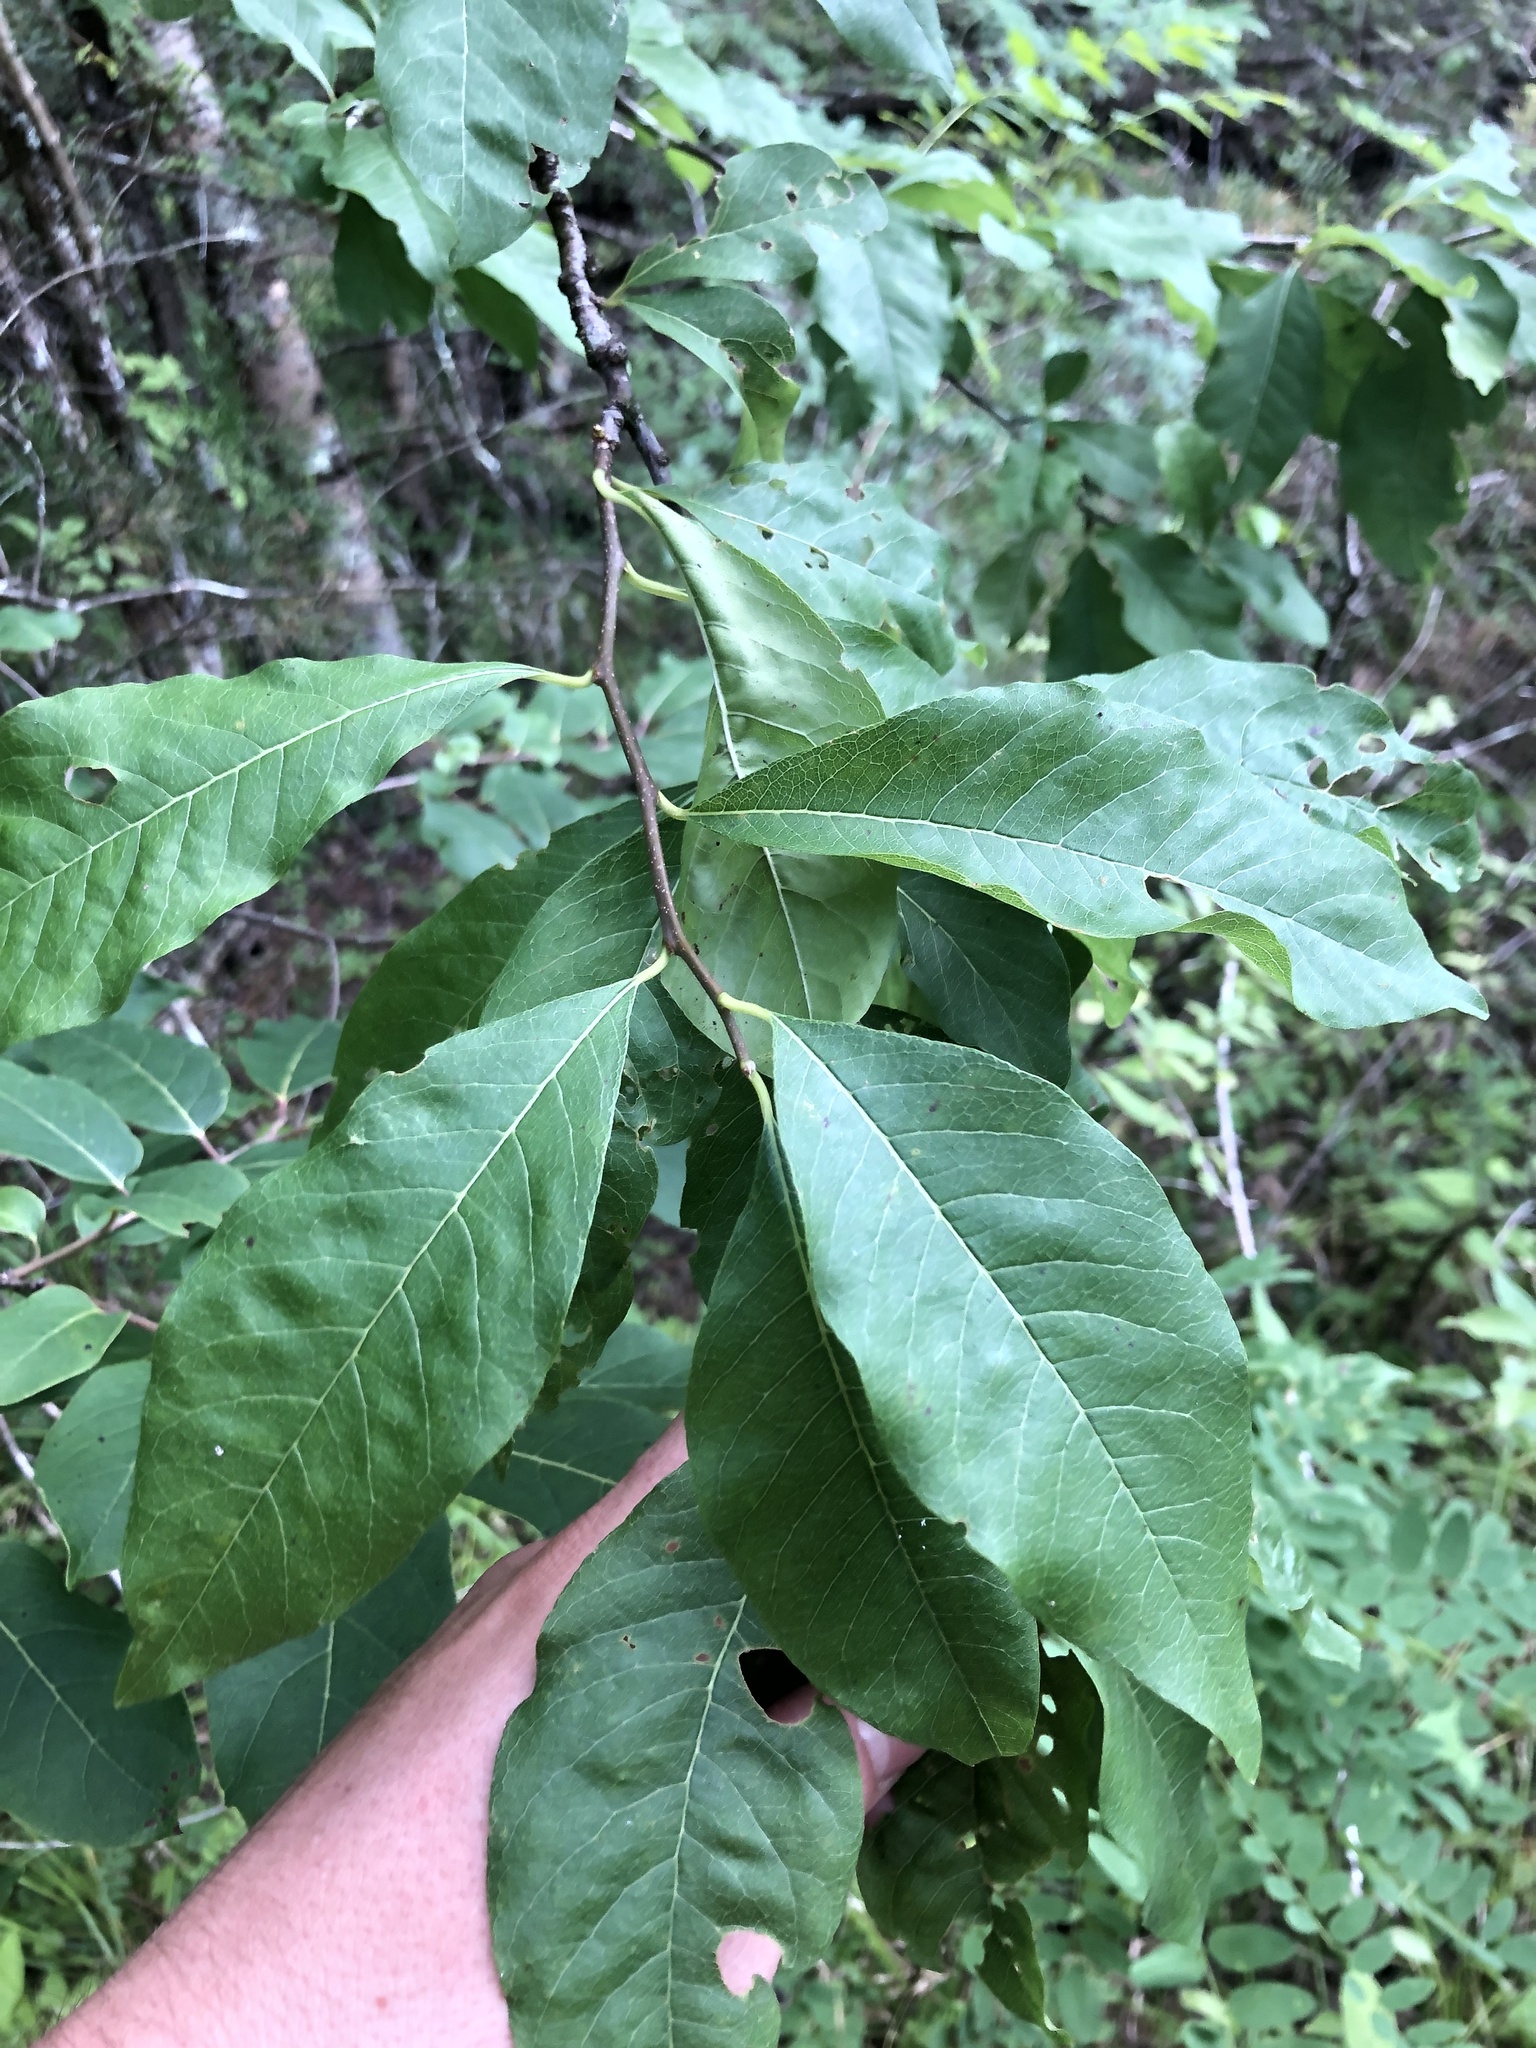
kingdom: Plantae
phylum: Tracheophyta
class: Magnoliopsida
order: Ericales
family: Sapotaceae
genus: Sideroxylon
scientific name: Sideroxylon lycioides
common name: Buckthorn bumelia
